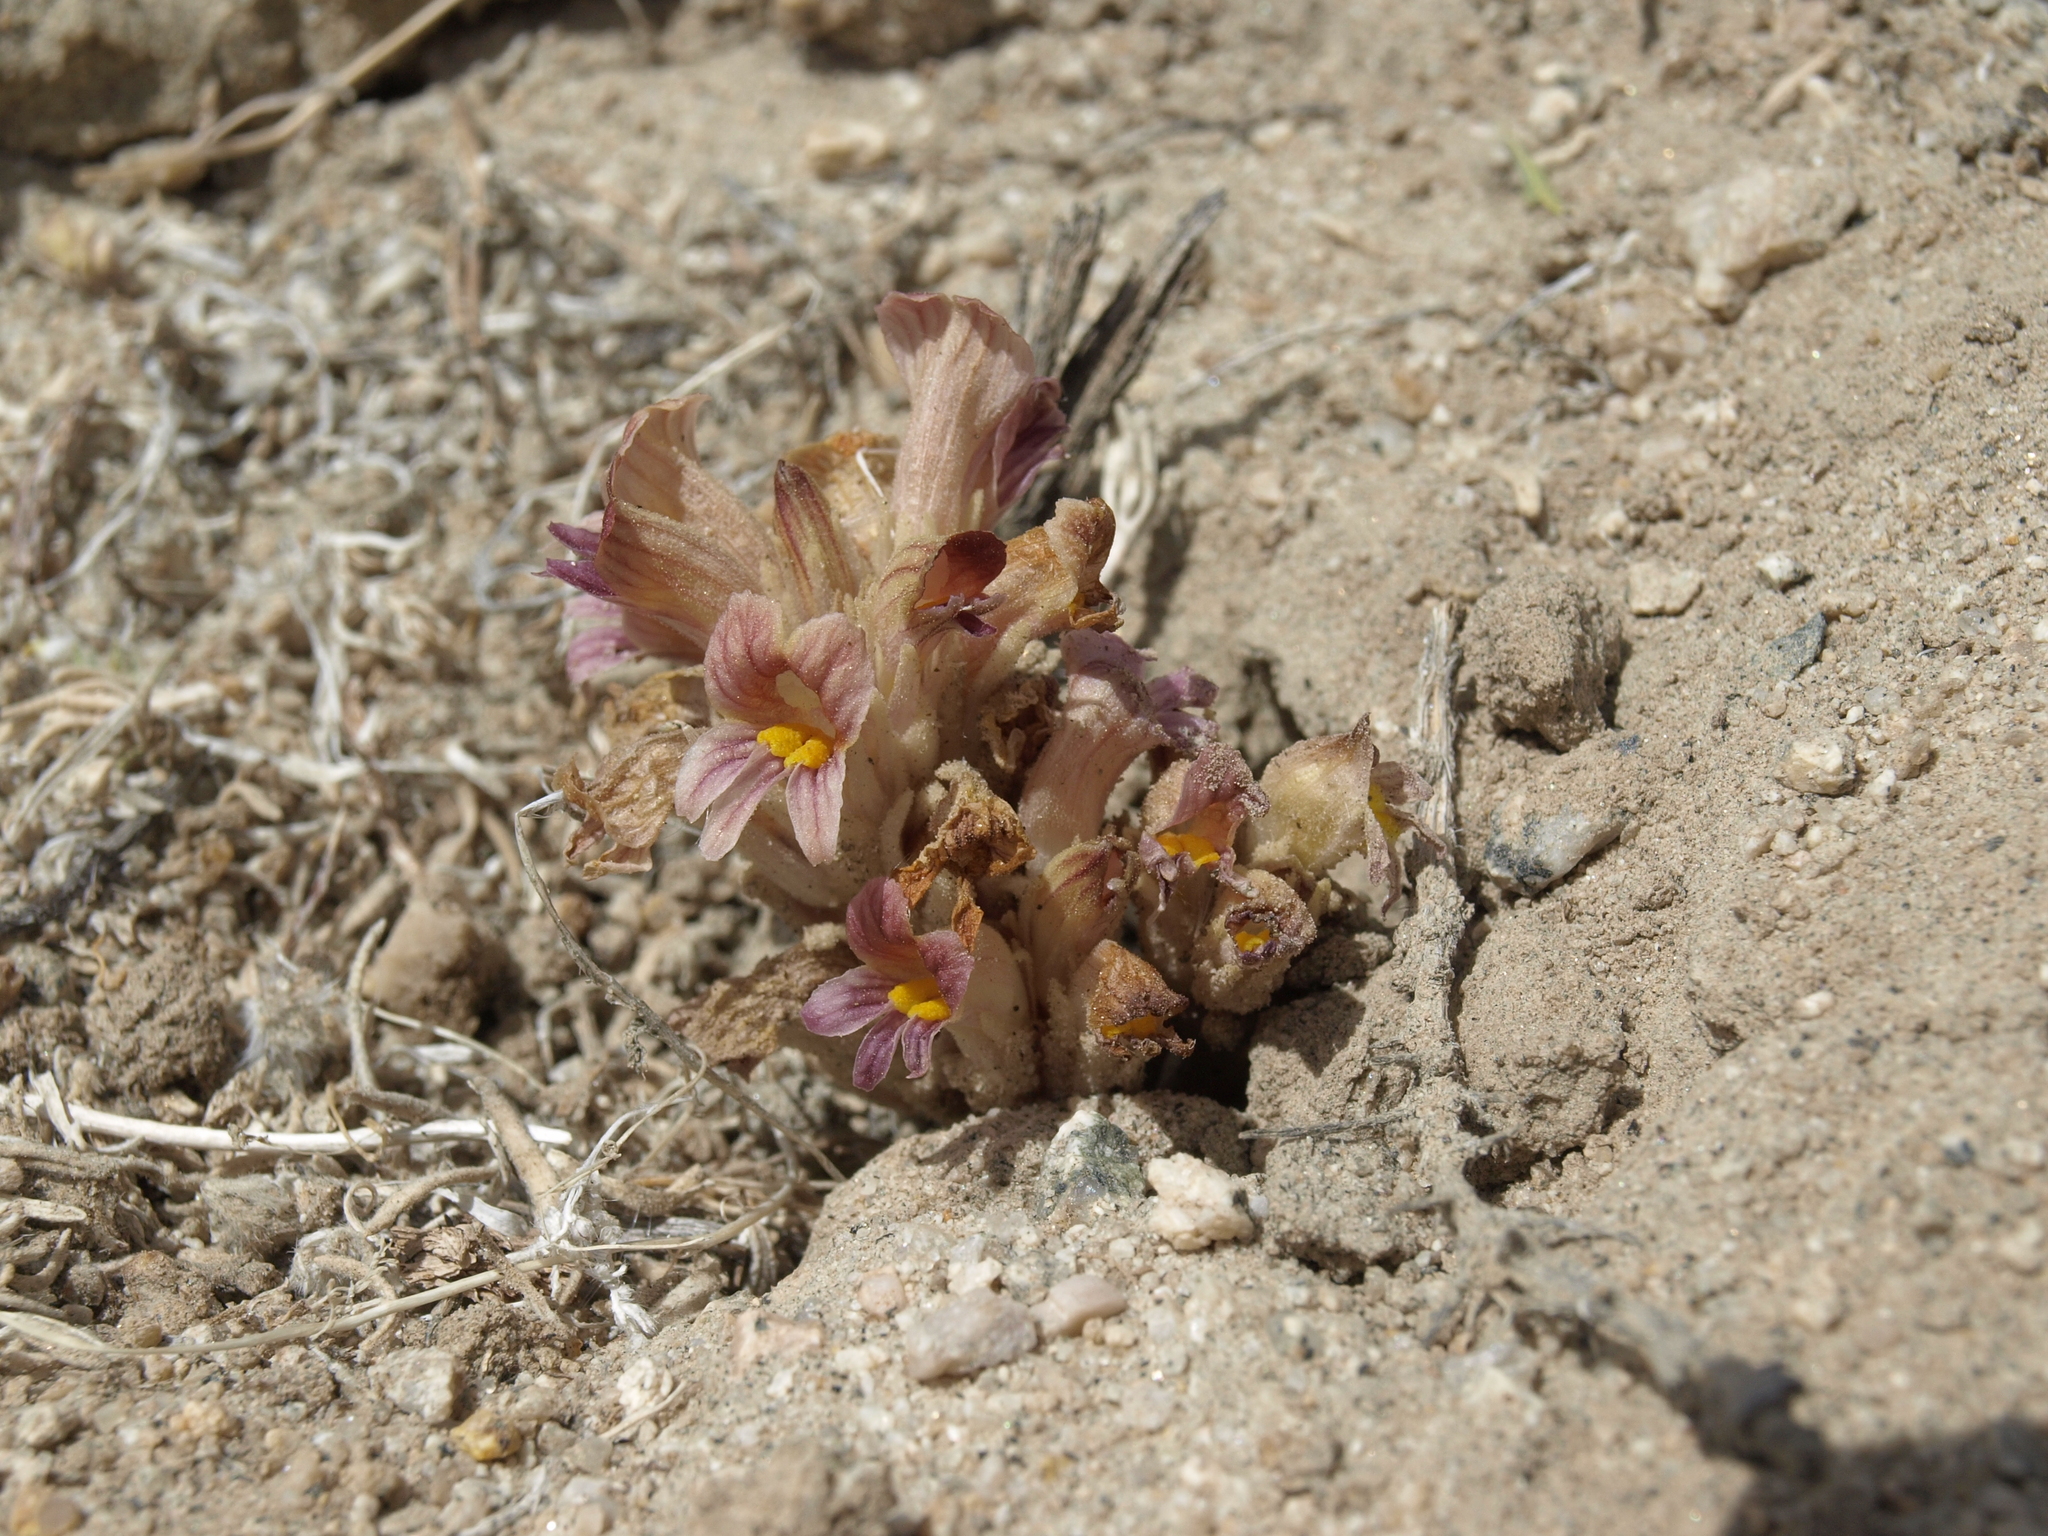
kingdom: Plantae
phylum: Tracheophyta
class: Magnoliopsida
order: Lamiales
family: Orobanchaceae
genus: Aphyllon
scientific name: Aphyllon corymbosum
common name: Flat-top broomrape
